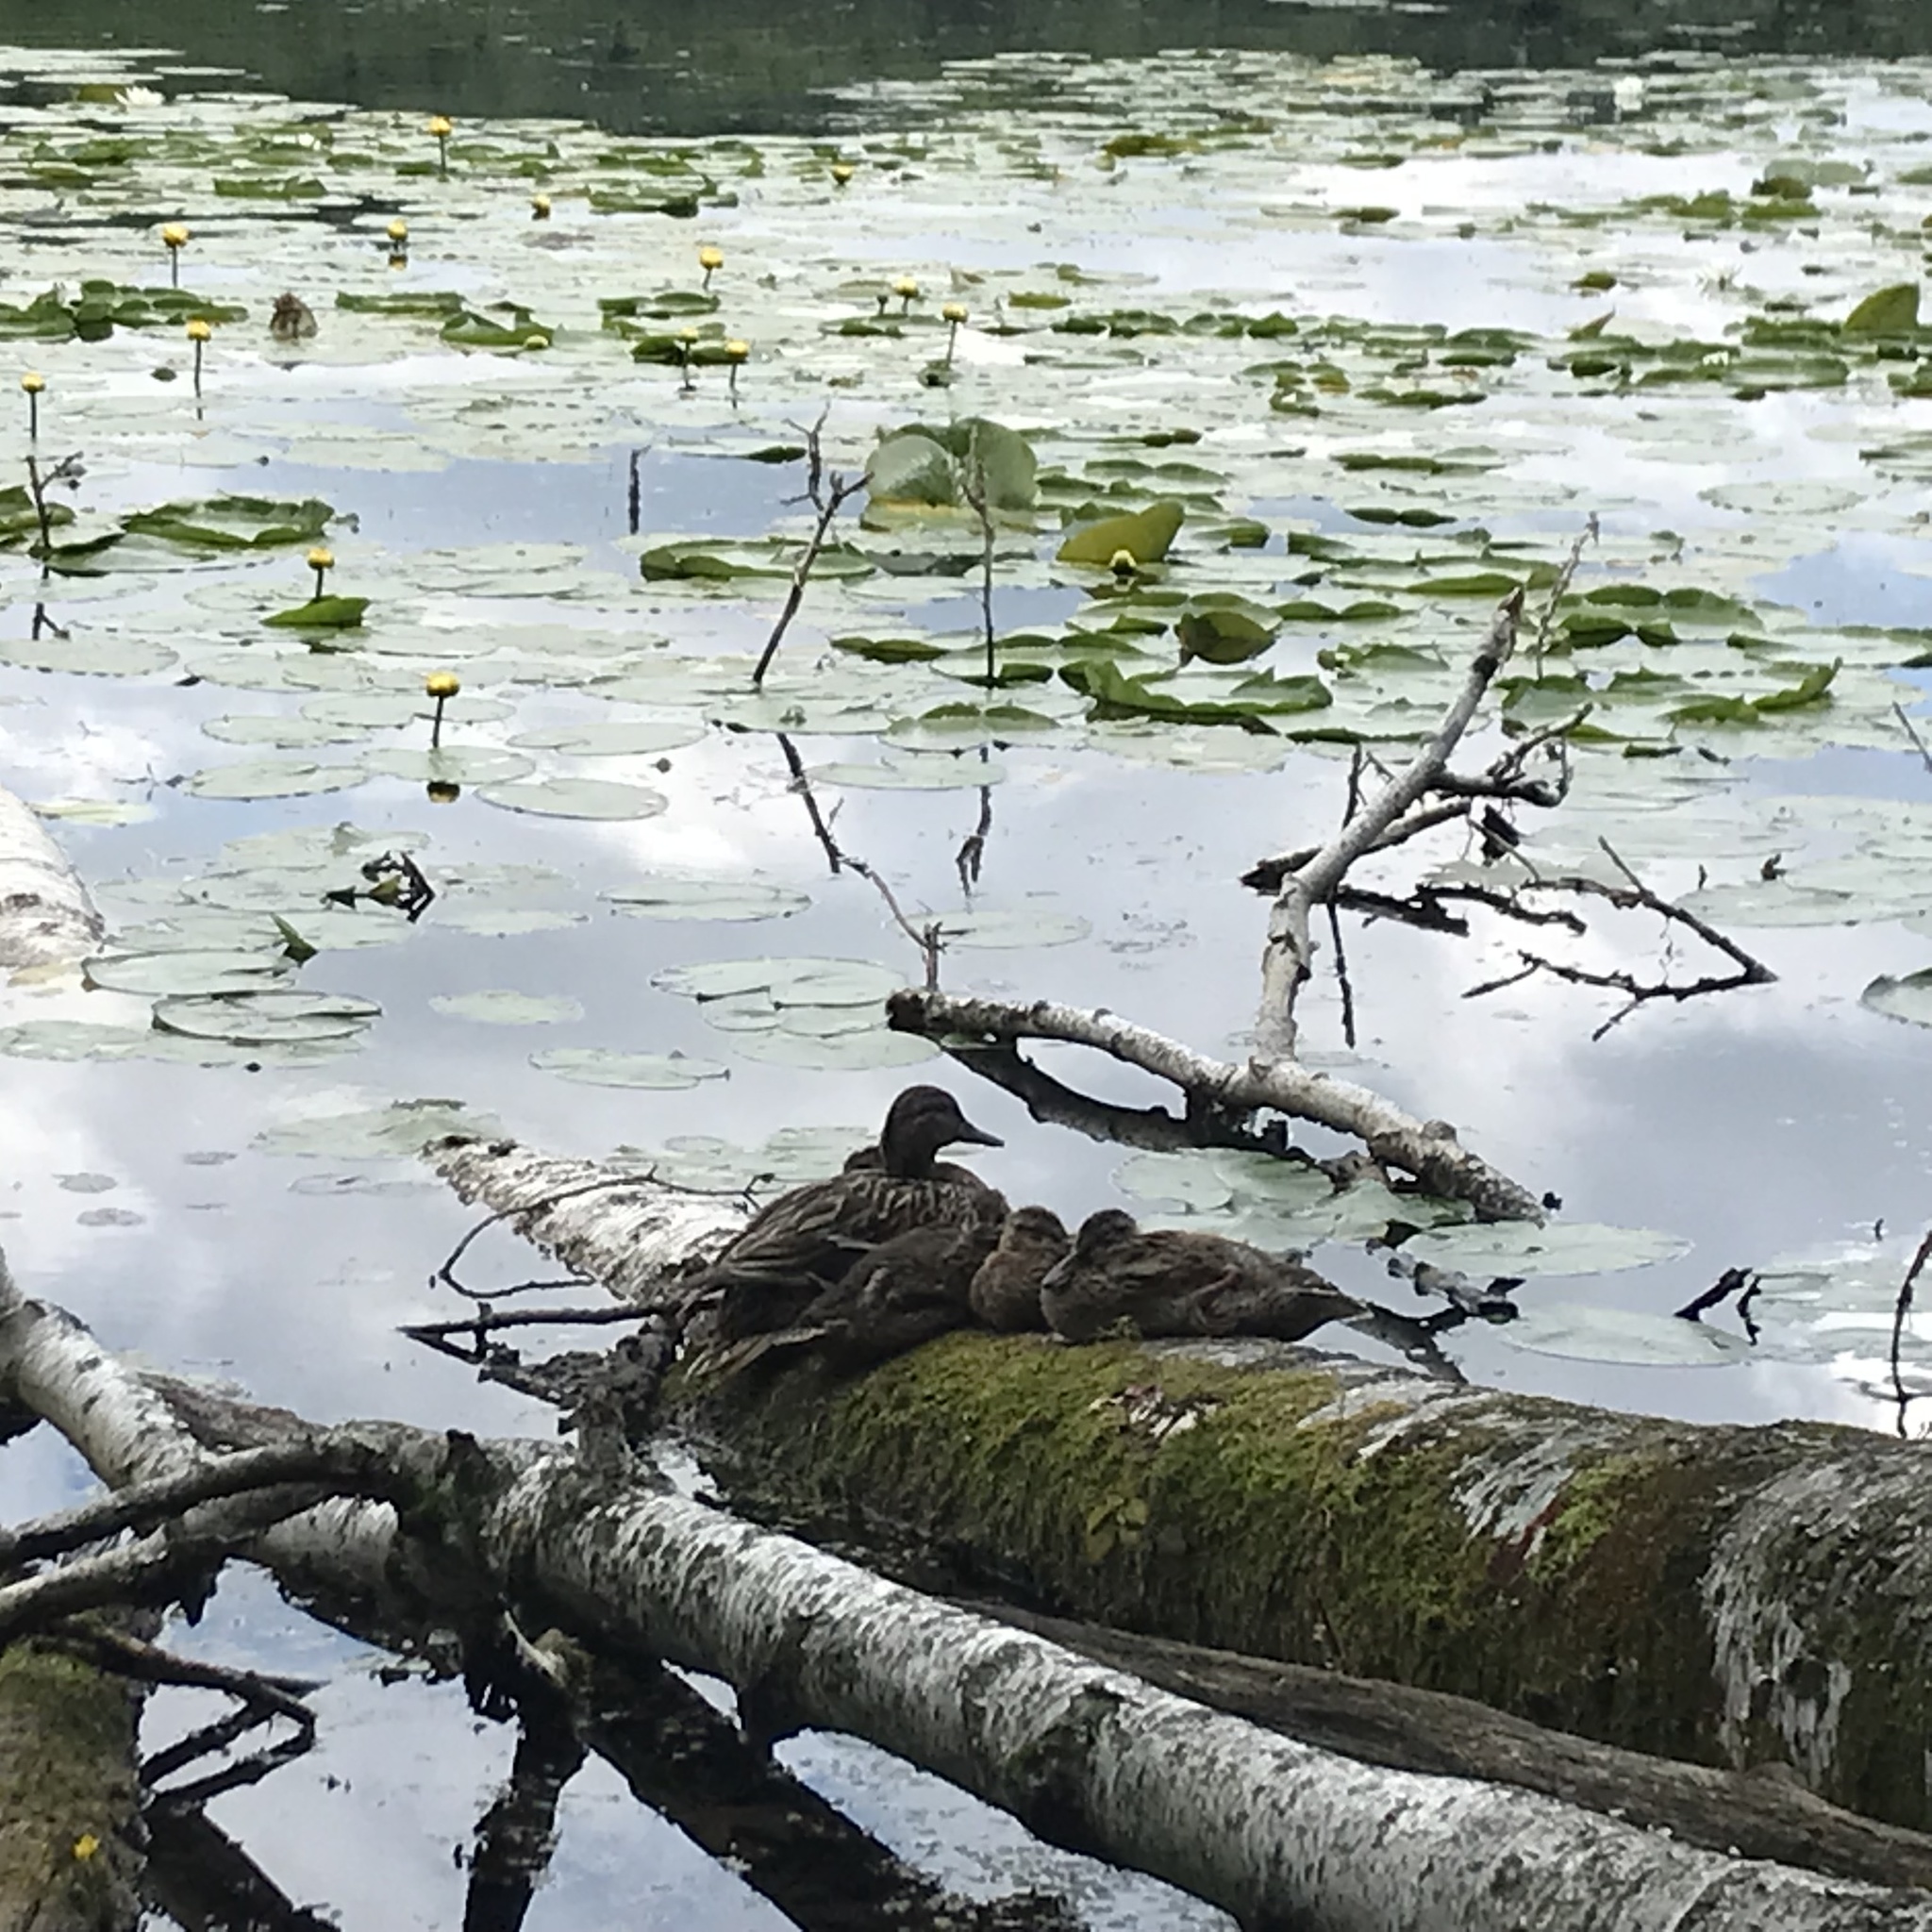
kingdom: Animalia
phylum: Chordata
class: Aves
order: Anseriformes
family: Anatidae
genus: Anas
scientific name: Anas platyrhynchos
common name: Mallard
